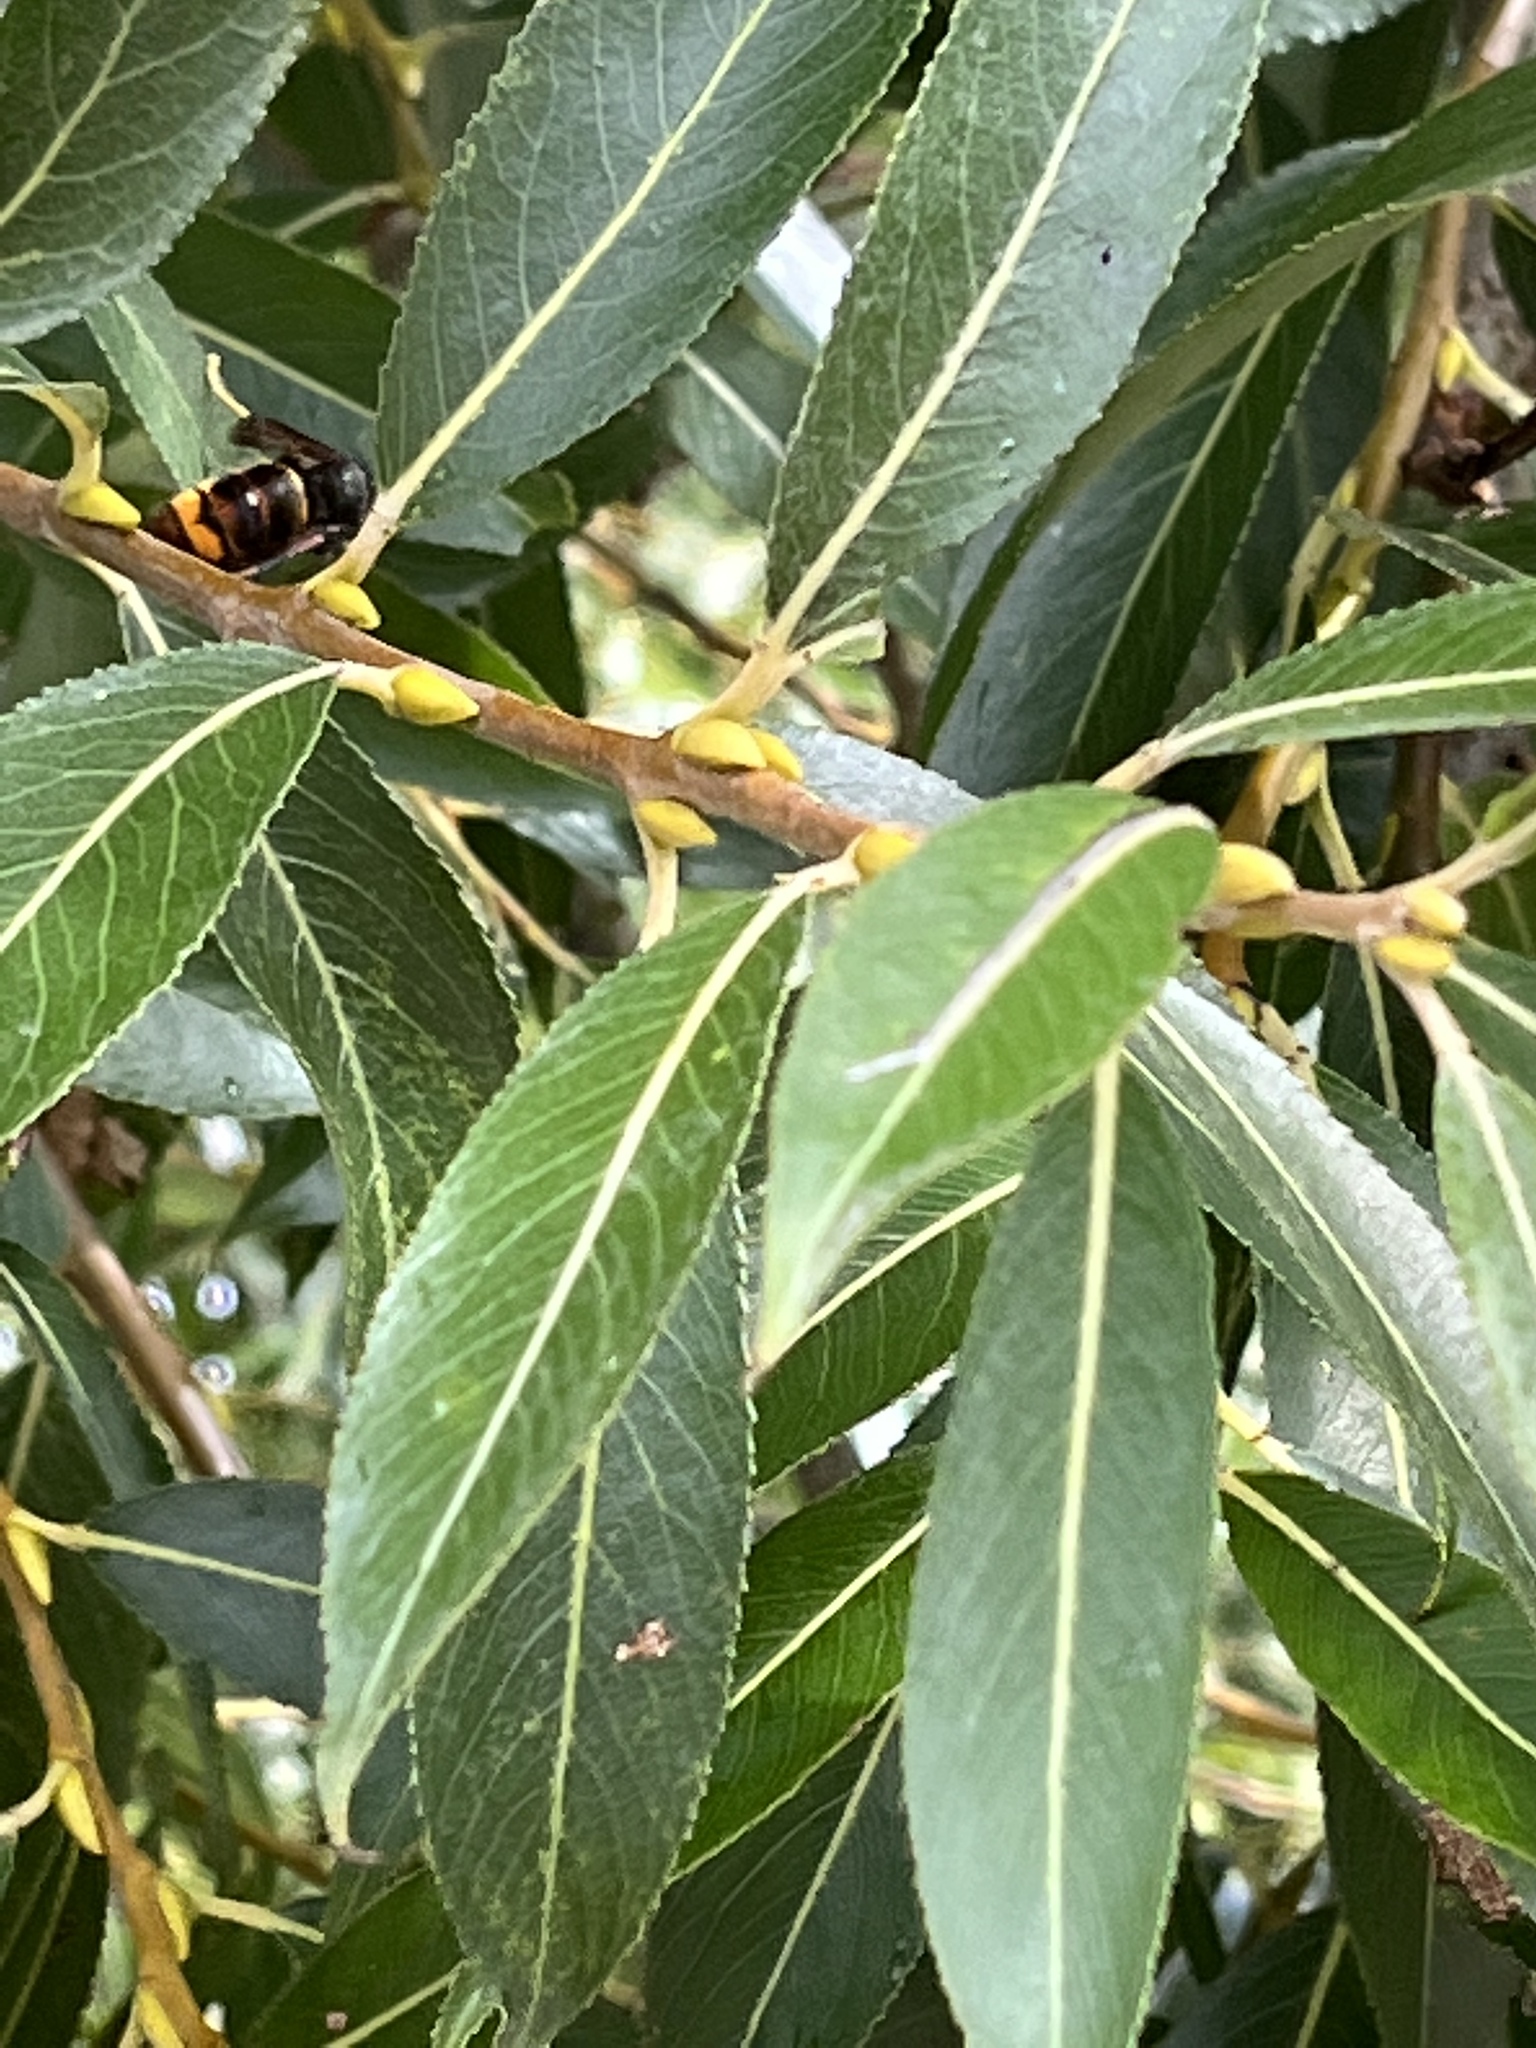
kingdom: Animalia
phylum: Arthropoda
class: Insecta
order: Hymenoptera
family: Vespidae
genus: Vespa
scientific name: Vespa velutina
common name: Asian hornet
